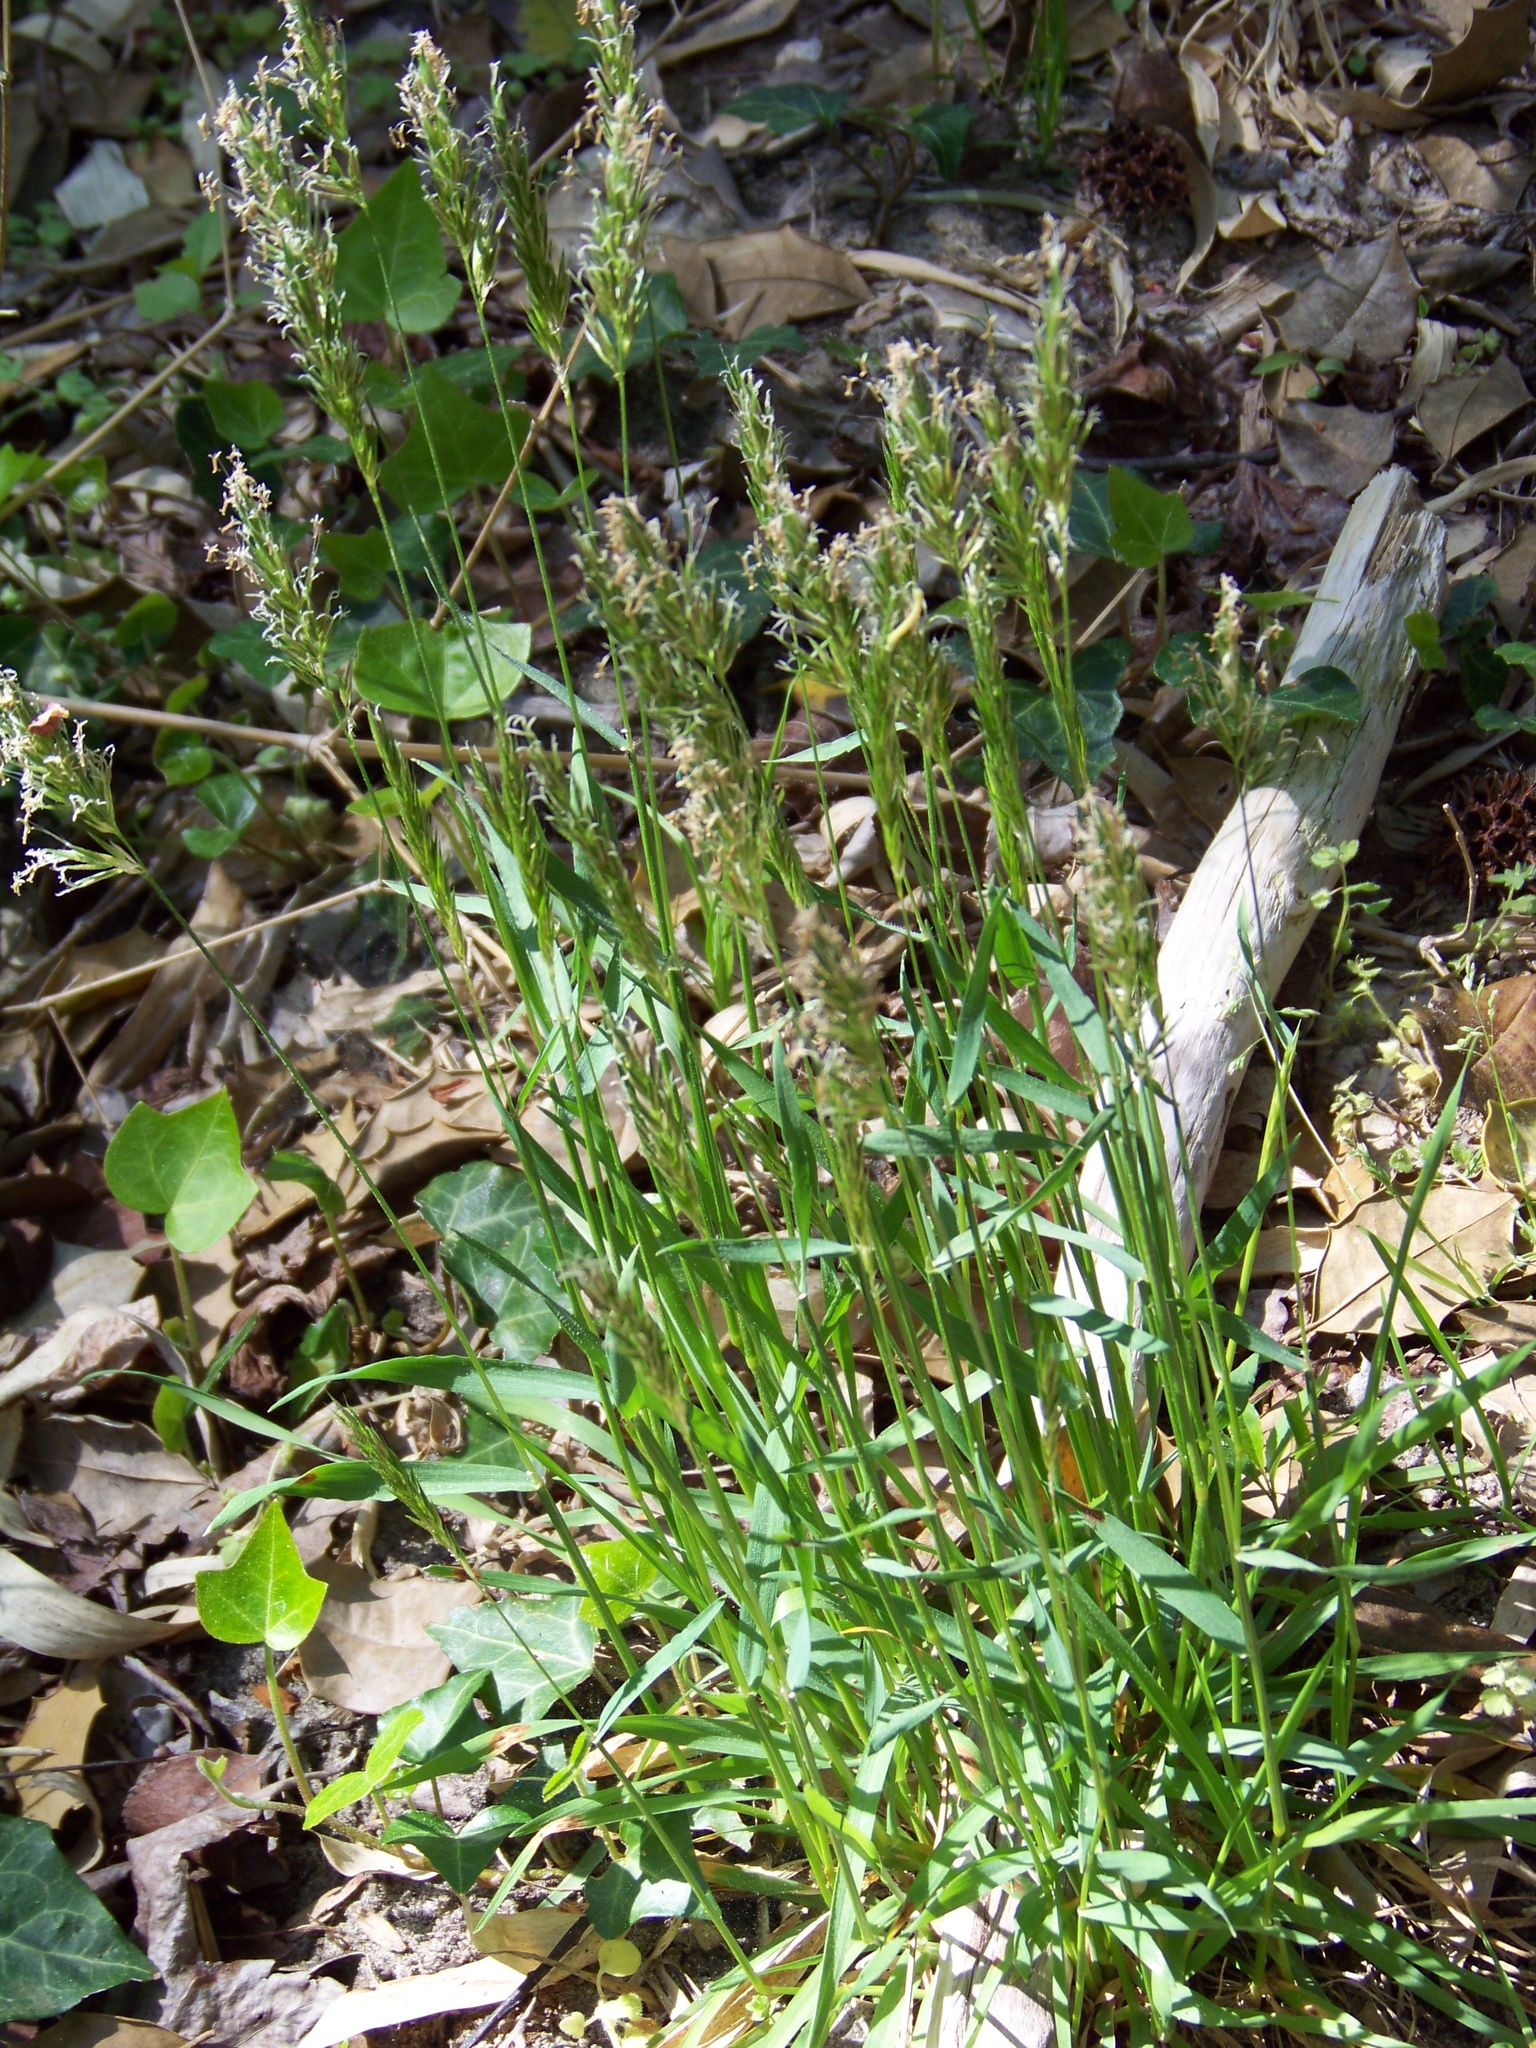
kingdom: Plantae
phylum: Tracheophyta
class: Liliopsida
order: Poales
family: Poaceae
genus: Anthoxanthum
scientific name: Anthoxanthum odoratum
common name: Sweet vernalgrass
